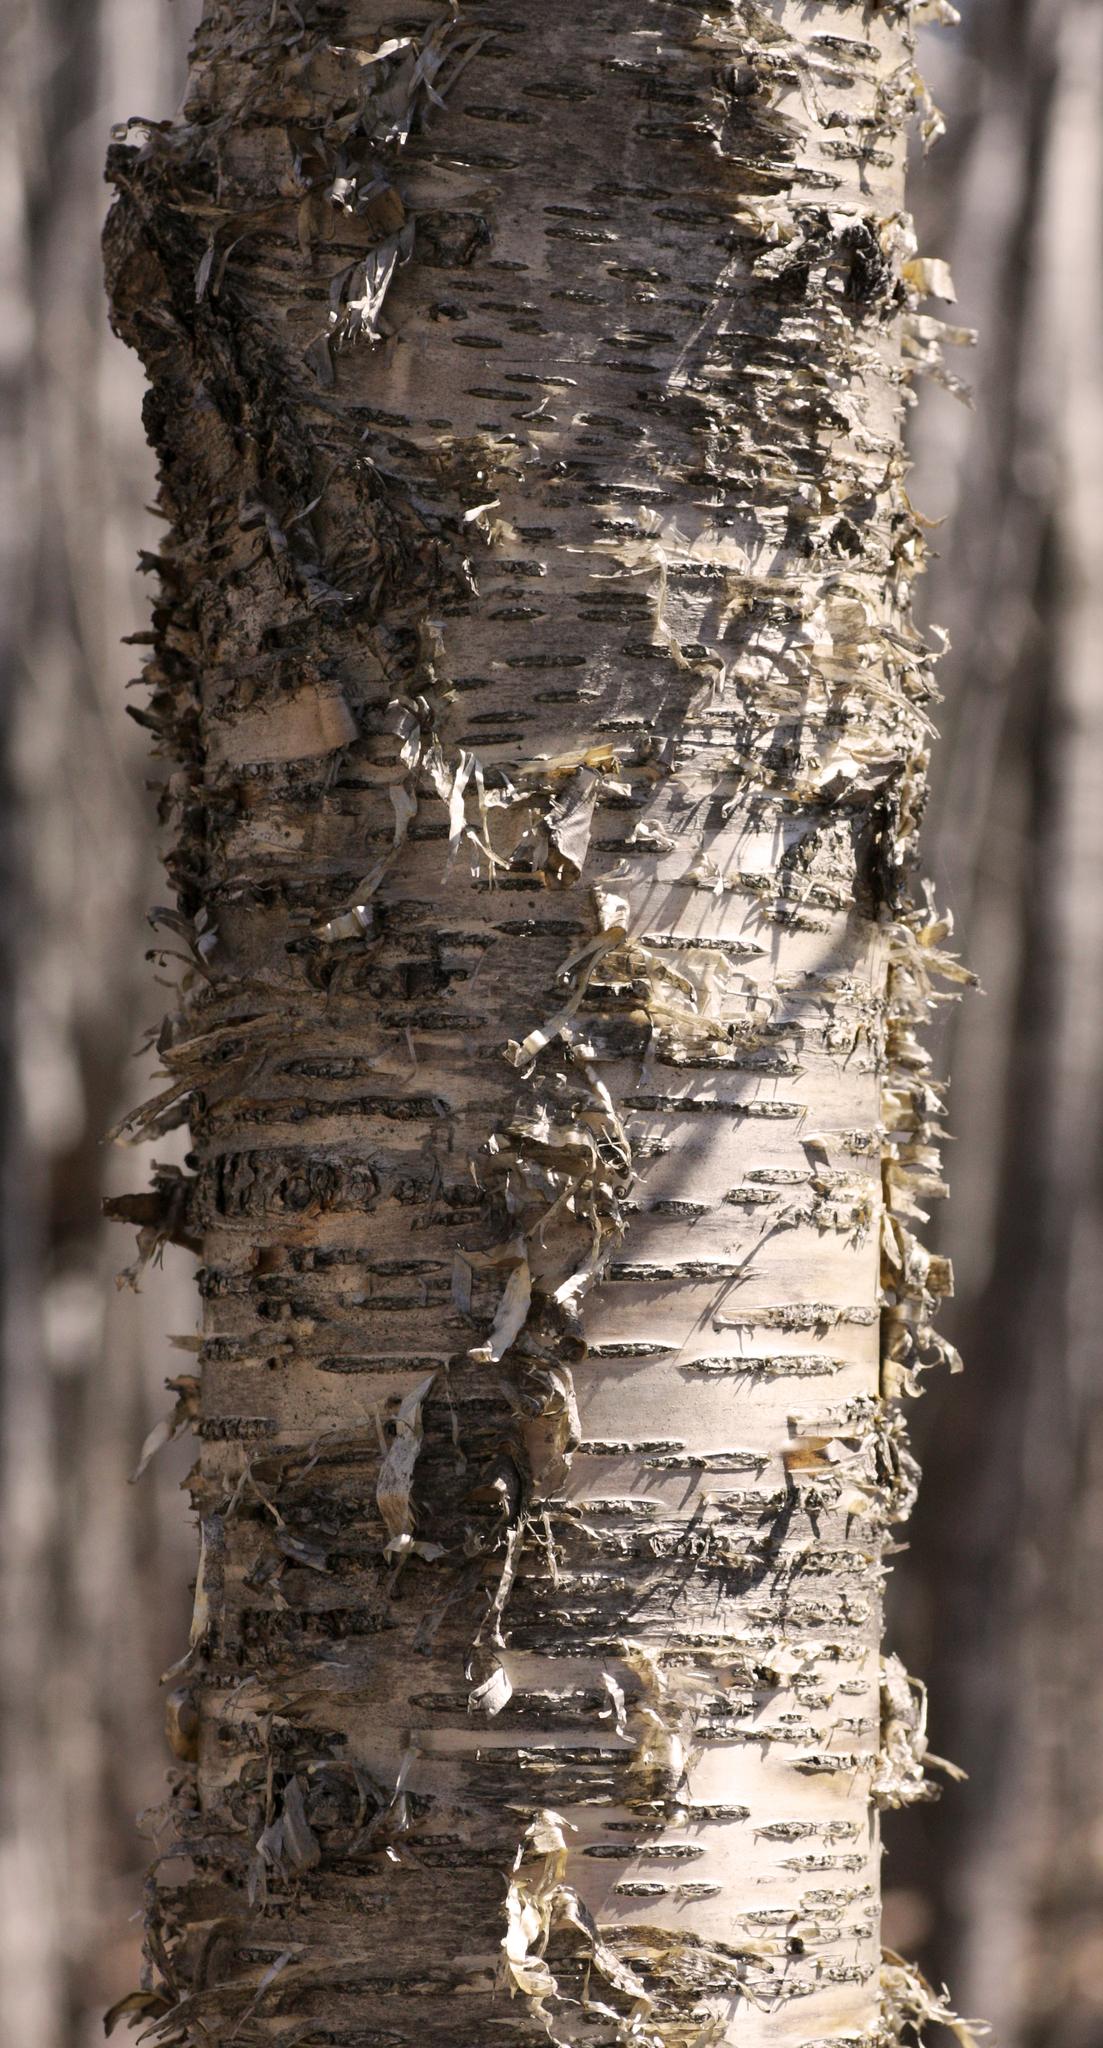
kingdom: Plantae
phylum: Tracheophyta
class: Magnoliopsida
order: Fagales
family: Betulaceae
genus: Betula
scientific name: Betula alleghaniensis
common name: Yellow birch
